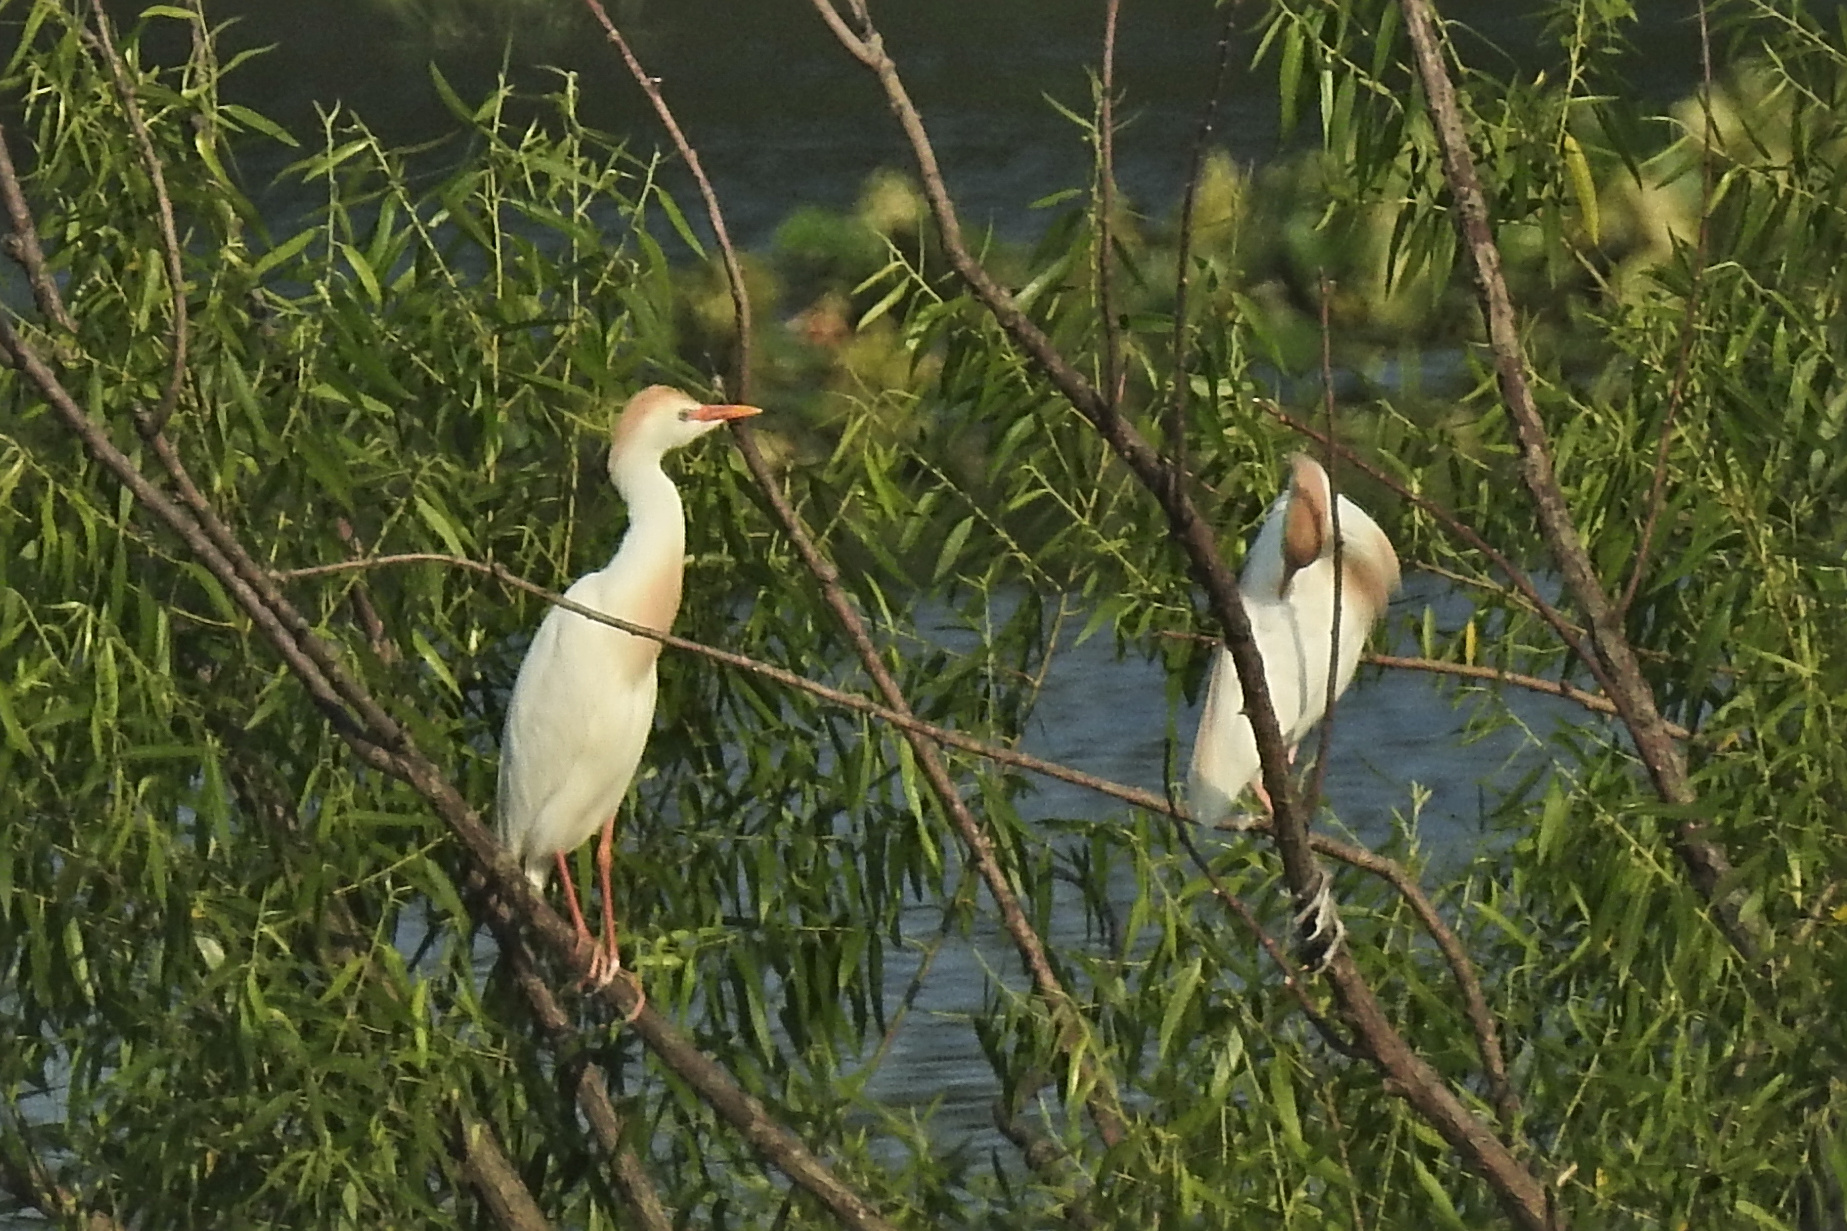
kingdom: Animalia
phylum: Chordata
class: Aves
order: Pelecaniformes
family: Ardeidae
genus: Bubulcus
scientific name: Bubulcus ibis
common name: Cattle egret
